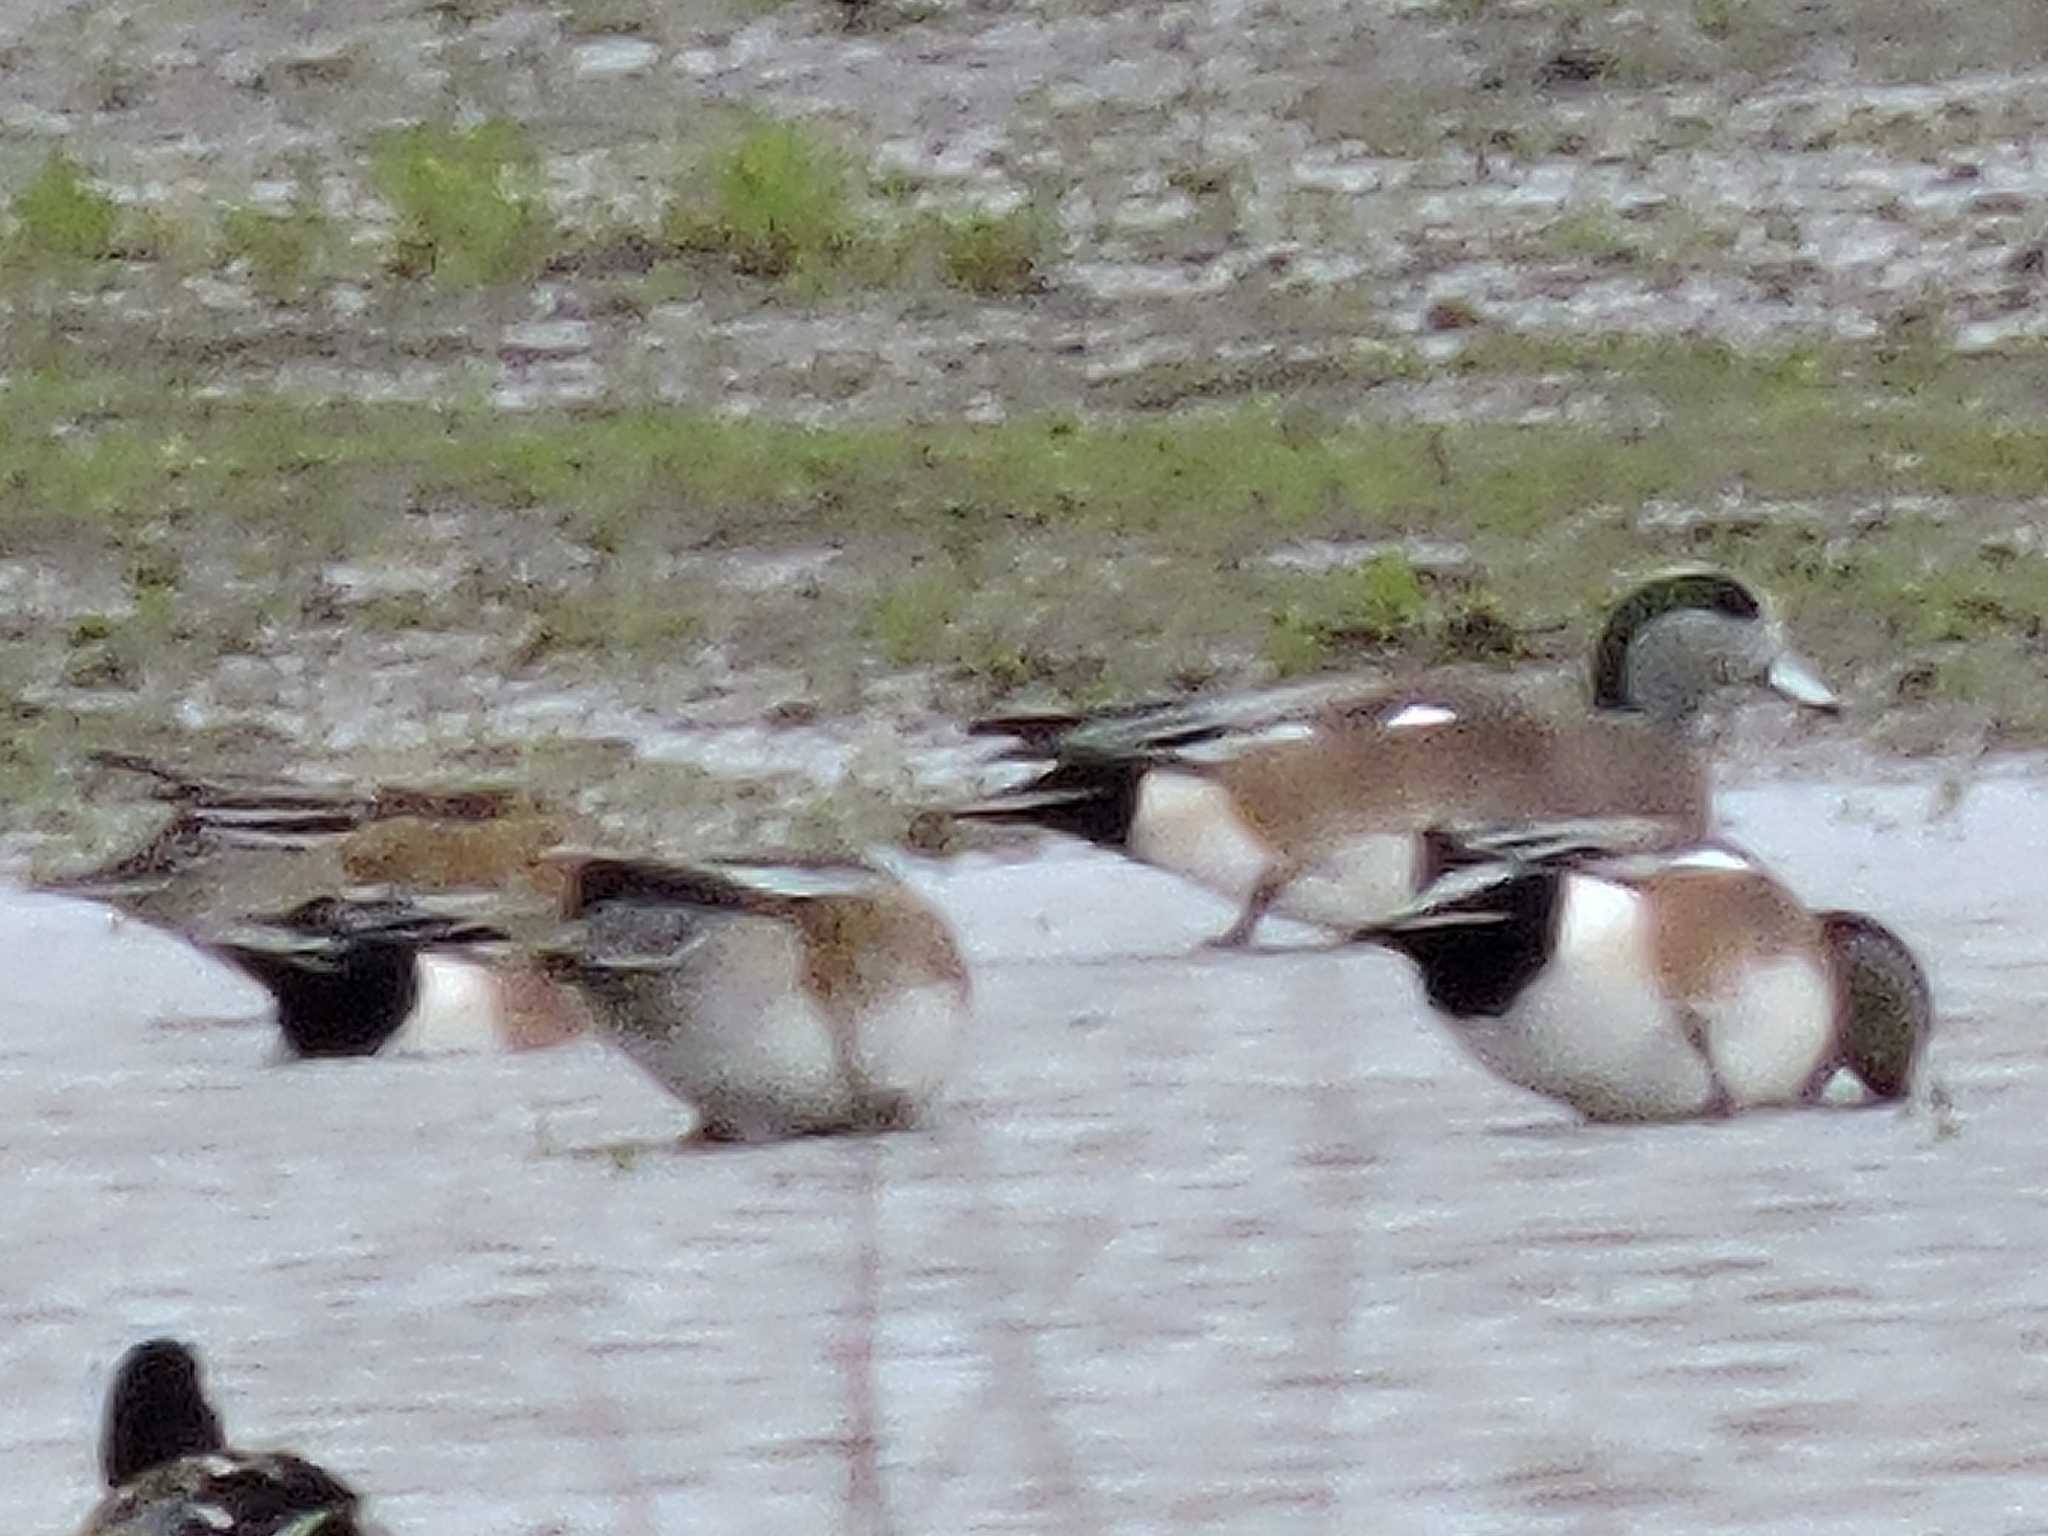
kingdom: Animalia
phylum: Chordata
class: Aves
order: Anseriformes
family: Anatidae
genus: Mareca
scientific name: Mareca americana
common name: American wigeon
